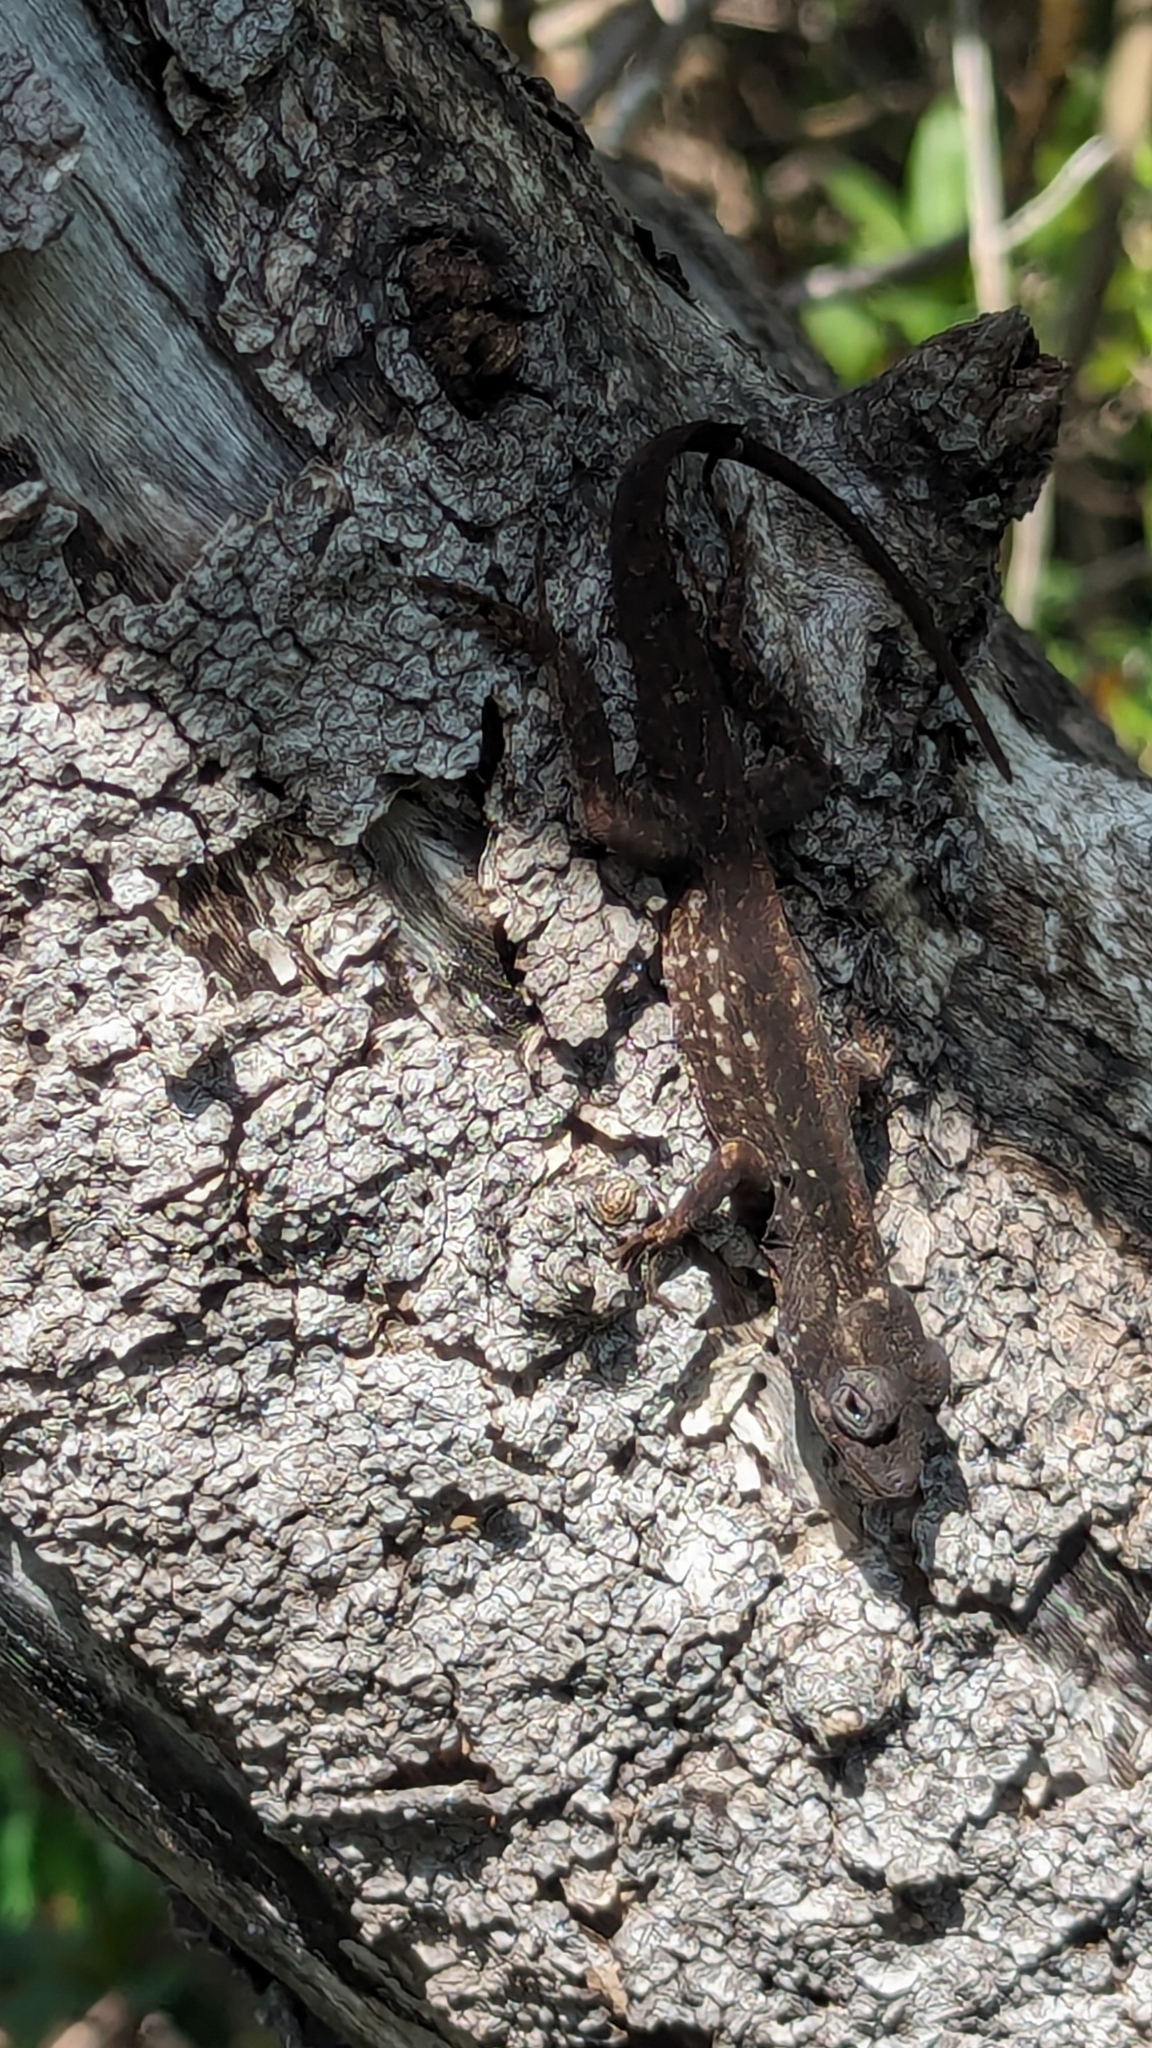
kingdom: Animalia
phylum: Chordata
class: Squamata
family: Dactyloidae
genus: Anolis
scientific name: Anolis sagrei
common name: Brown anole
